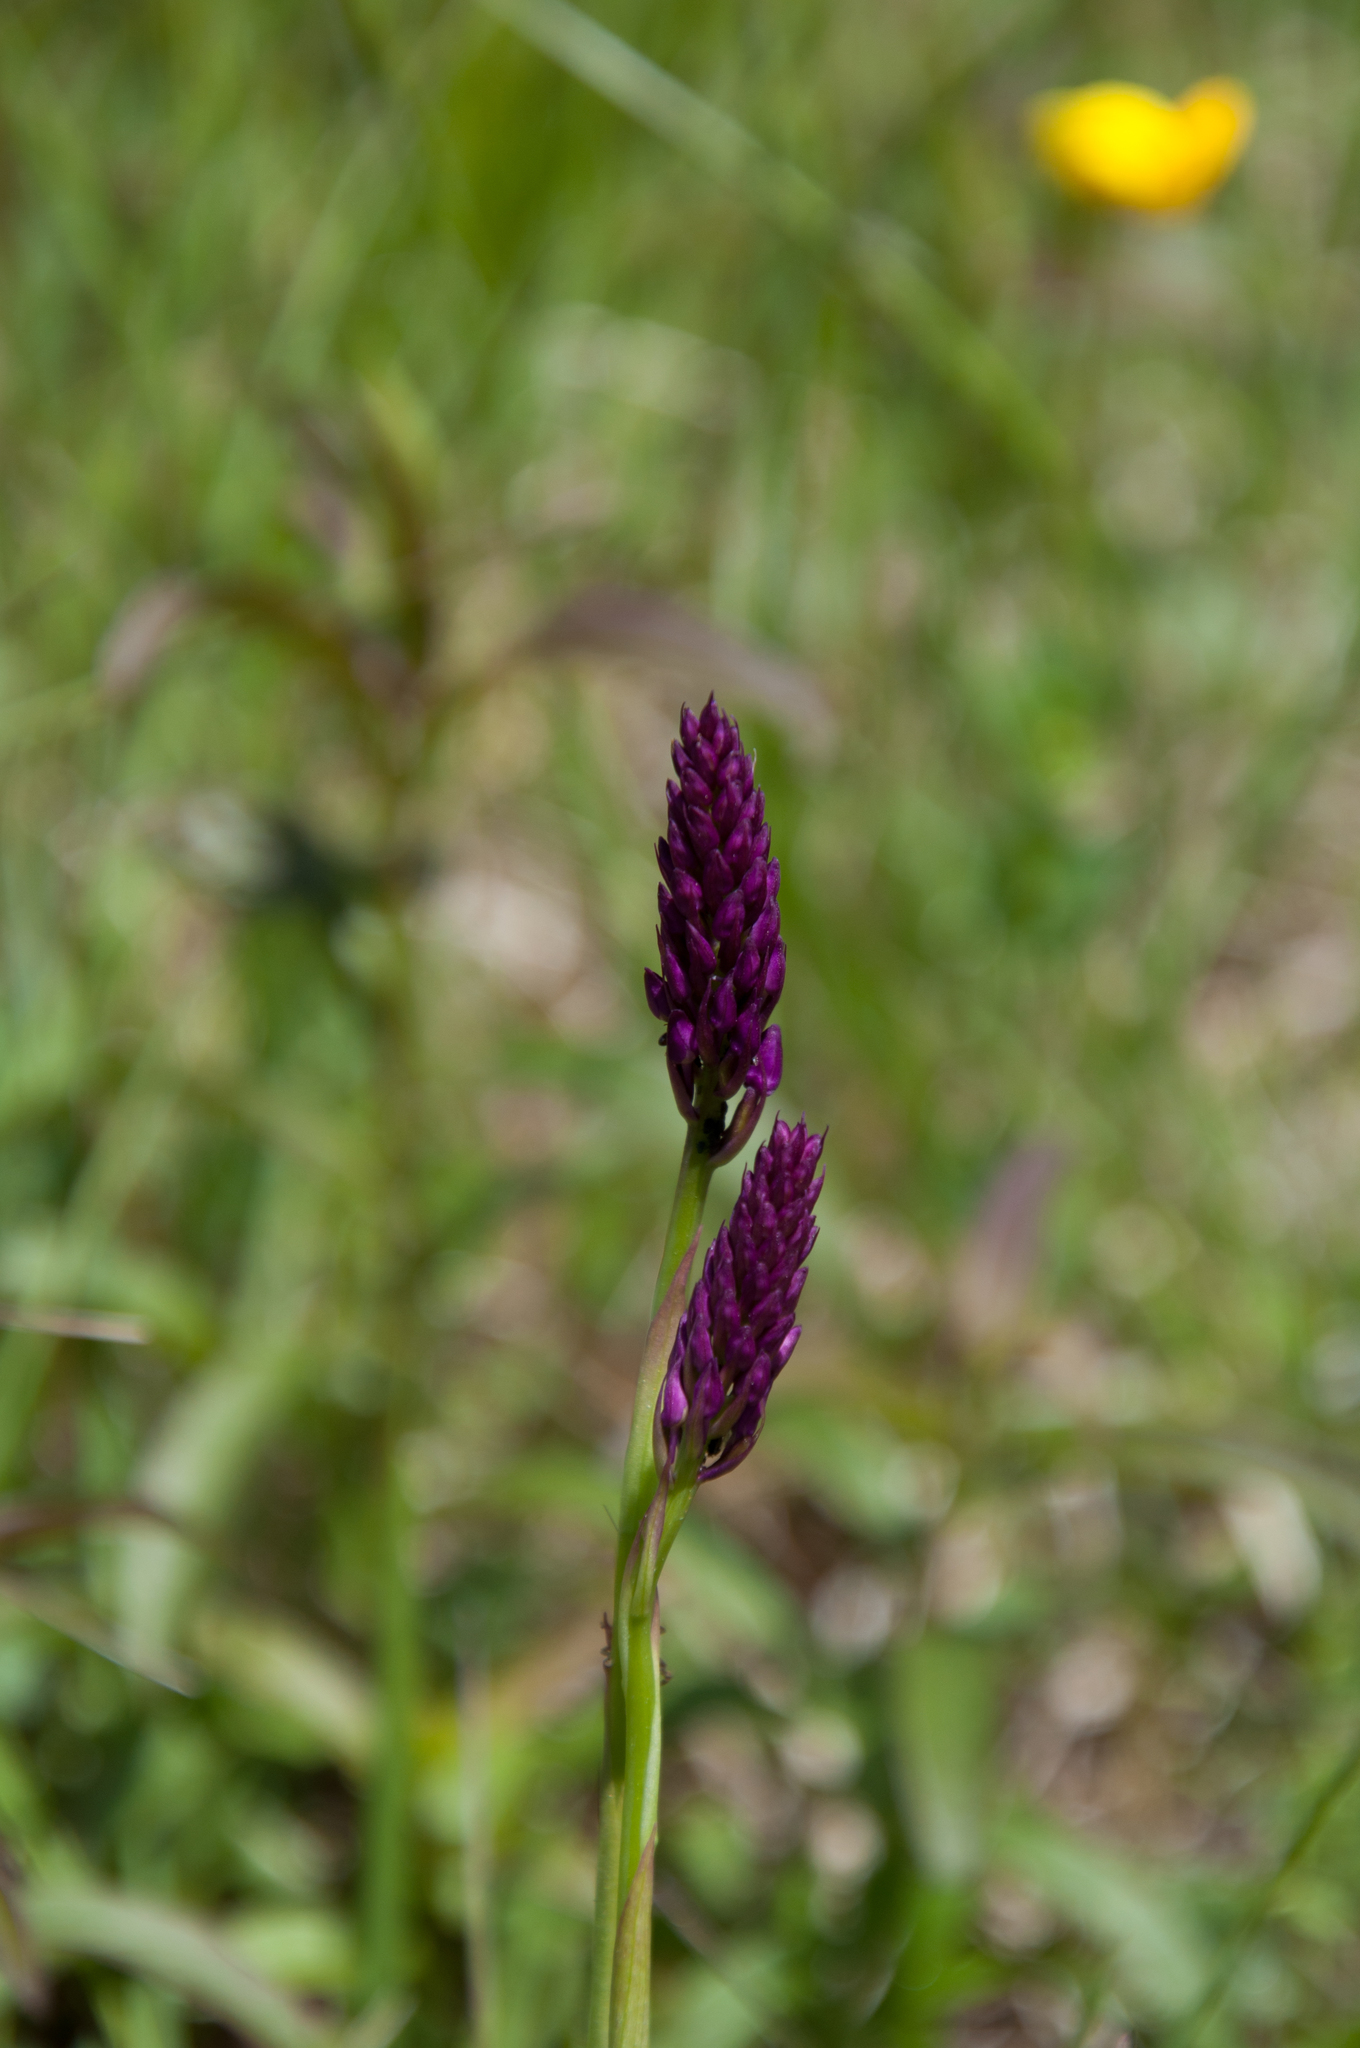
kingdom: Plantae
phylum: Tracheophyta
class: Liliopsida
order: Asparagales
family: Orchidaceae
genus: Anacamptis
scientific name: Anacamptis pyramidalis
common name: Pyramidal orchid
